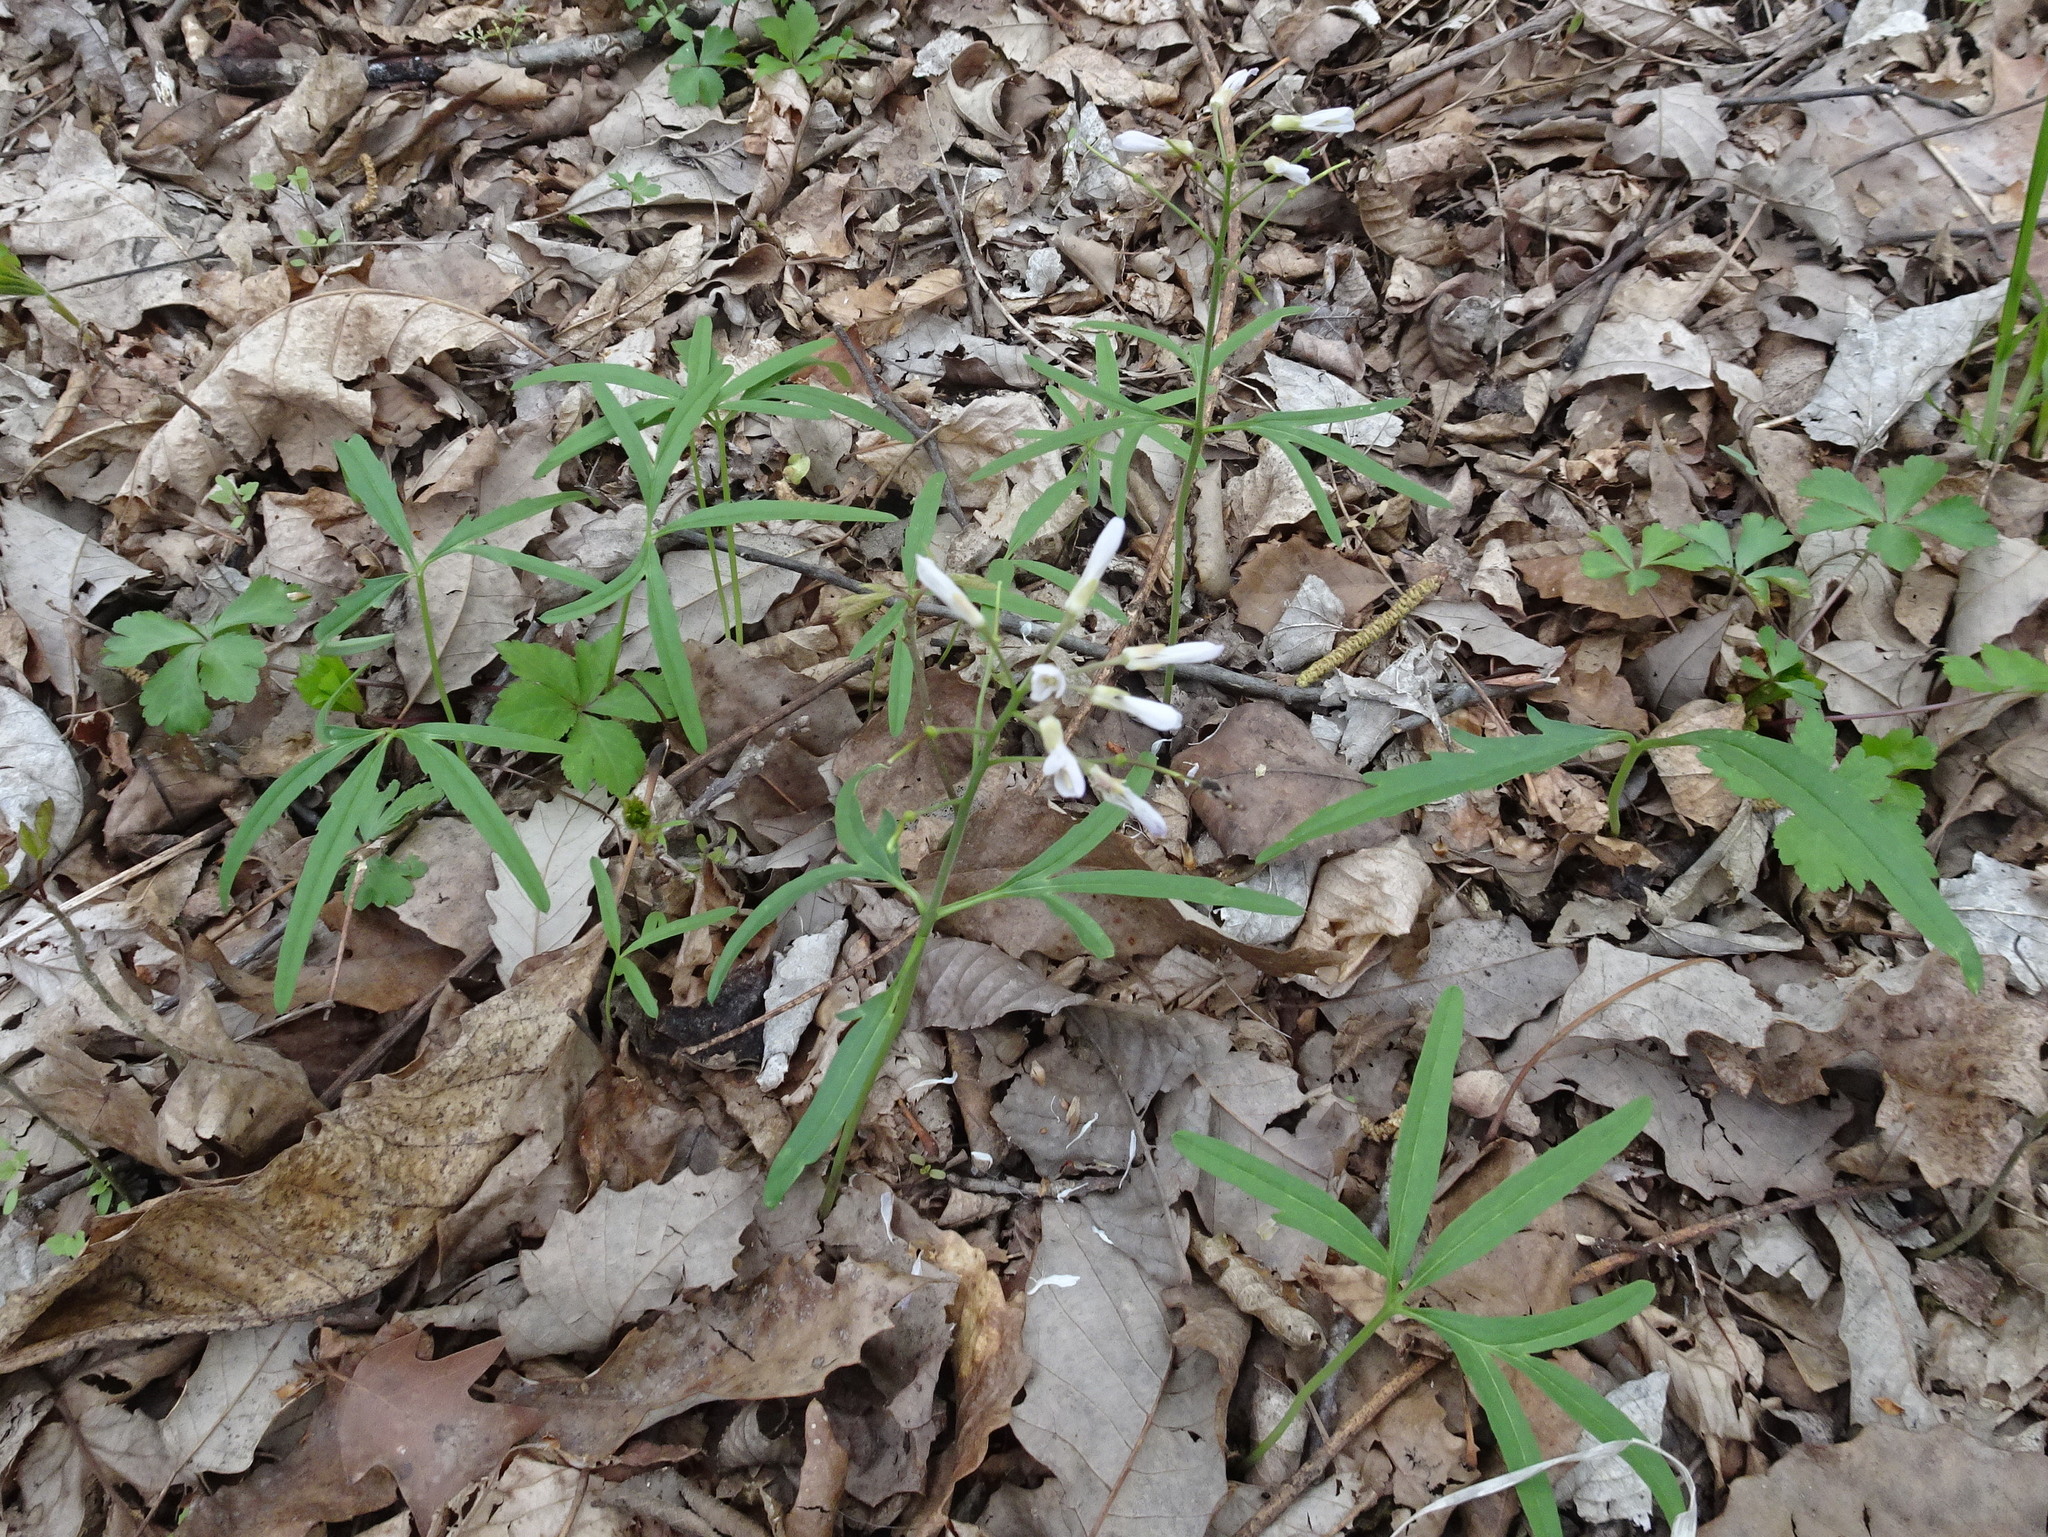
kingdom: Plantae
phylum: Tracheophyta
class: Magnoliopsida
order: Brassicales
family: Brassicaceae
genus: Cardamine
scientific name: Cardamine concatenata
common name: Cut-leaf toothcup
